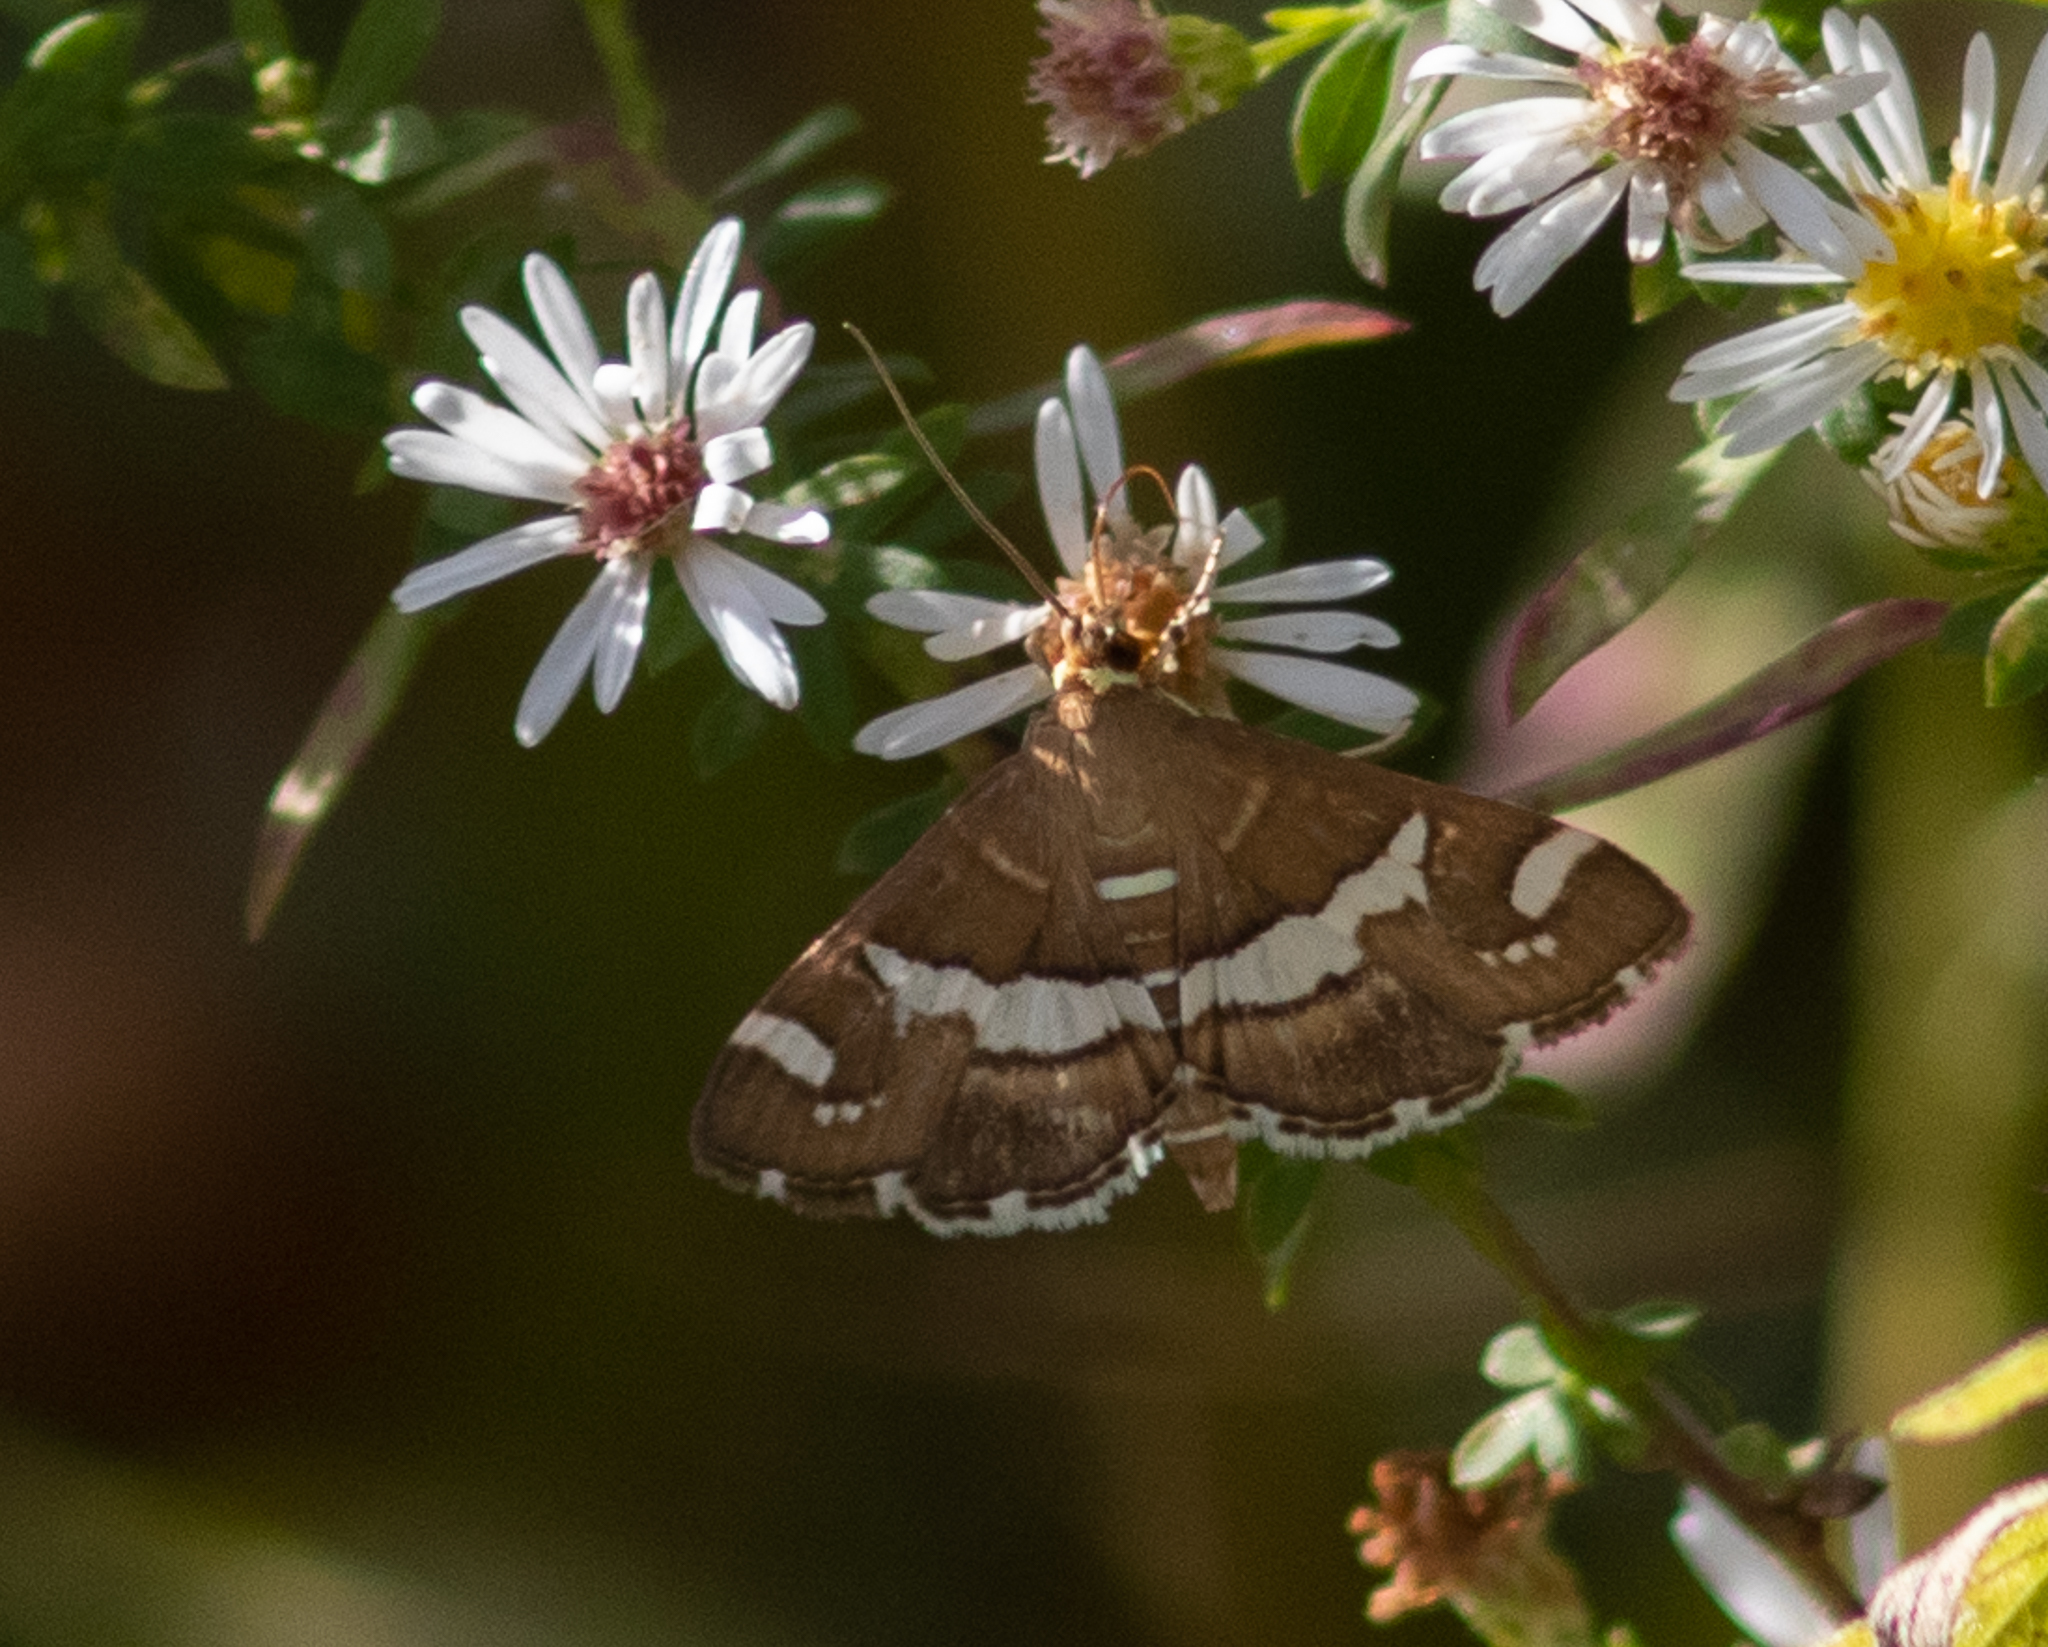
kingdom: Animalia
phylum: Arthropoda
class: Insecta
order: Lepidoptera
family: Crambidae
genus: Spoladea
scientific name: Spoladea recurvalis
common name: Beet webworm moth
